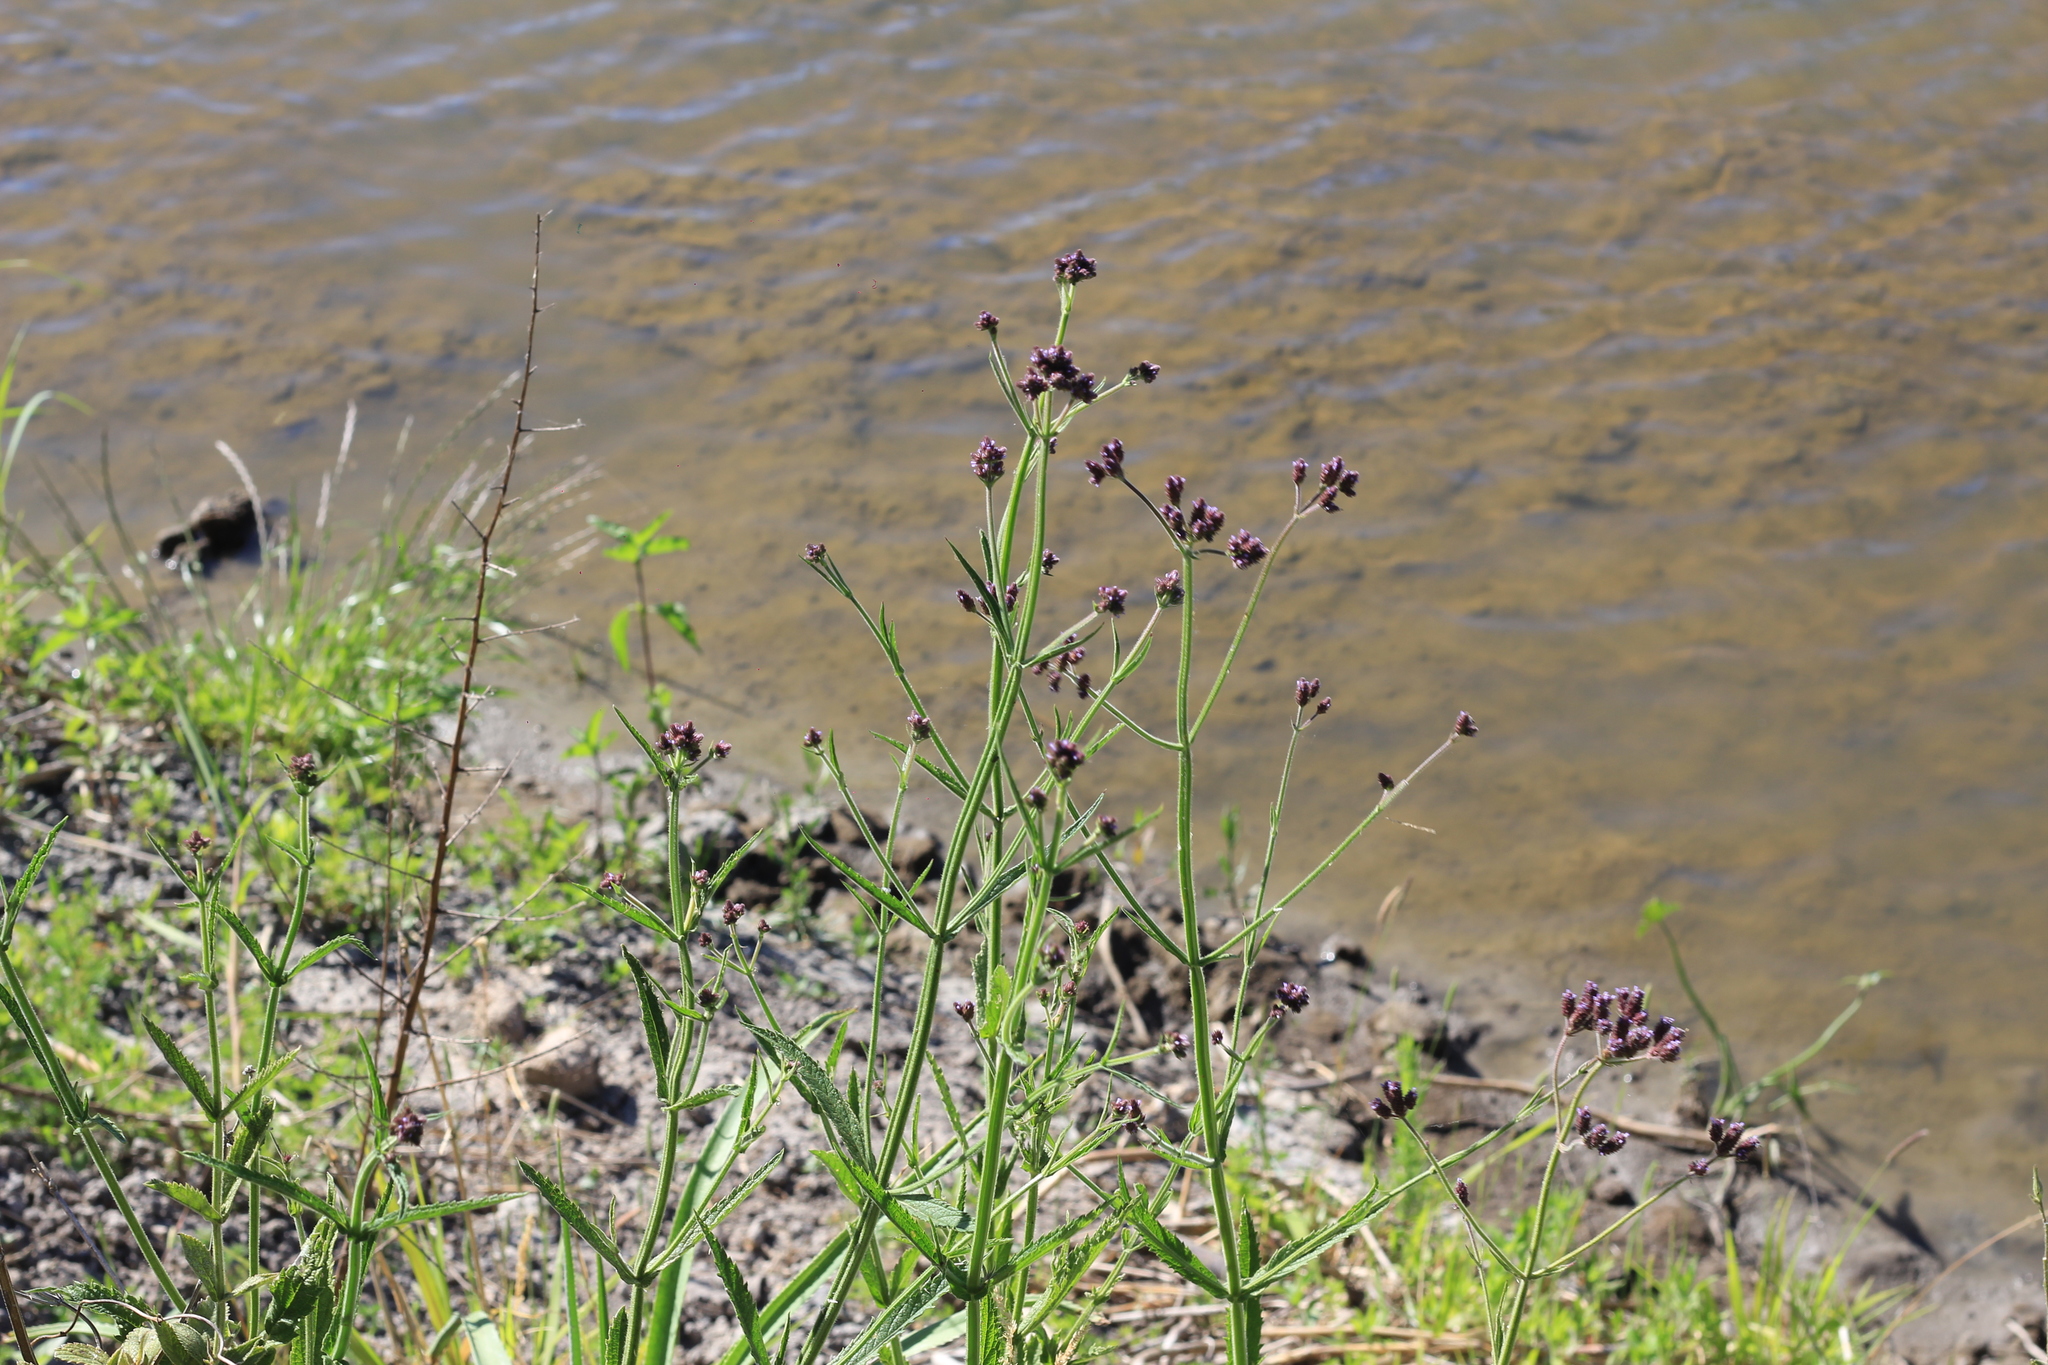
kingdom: Plantae
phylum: Tracheophyta
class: Magnoliopsida
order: Lamiales
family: Verbenaceae
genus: Verbena
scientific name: Verbena bonariensis
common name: Purpletop vervain
